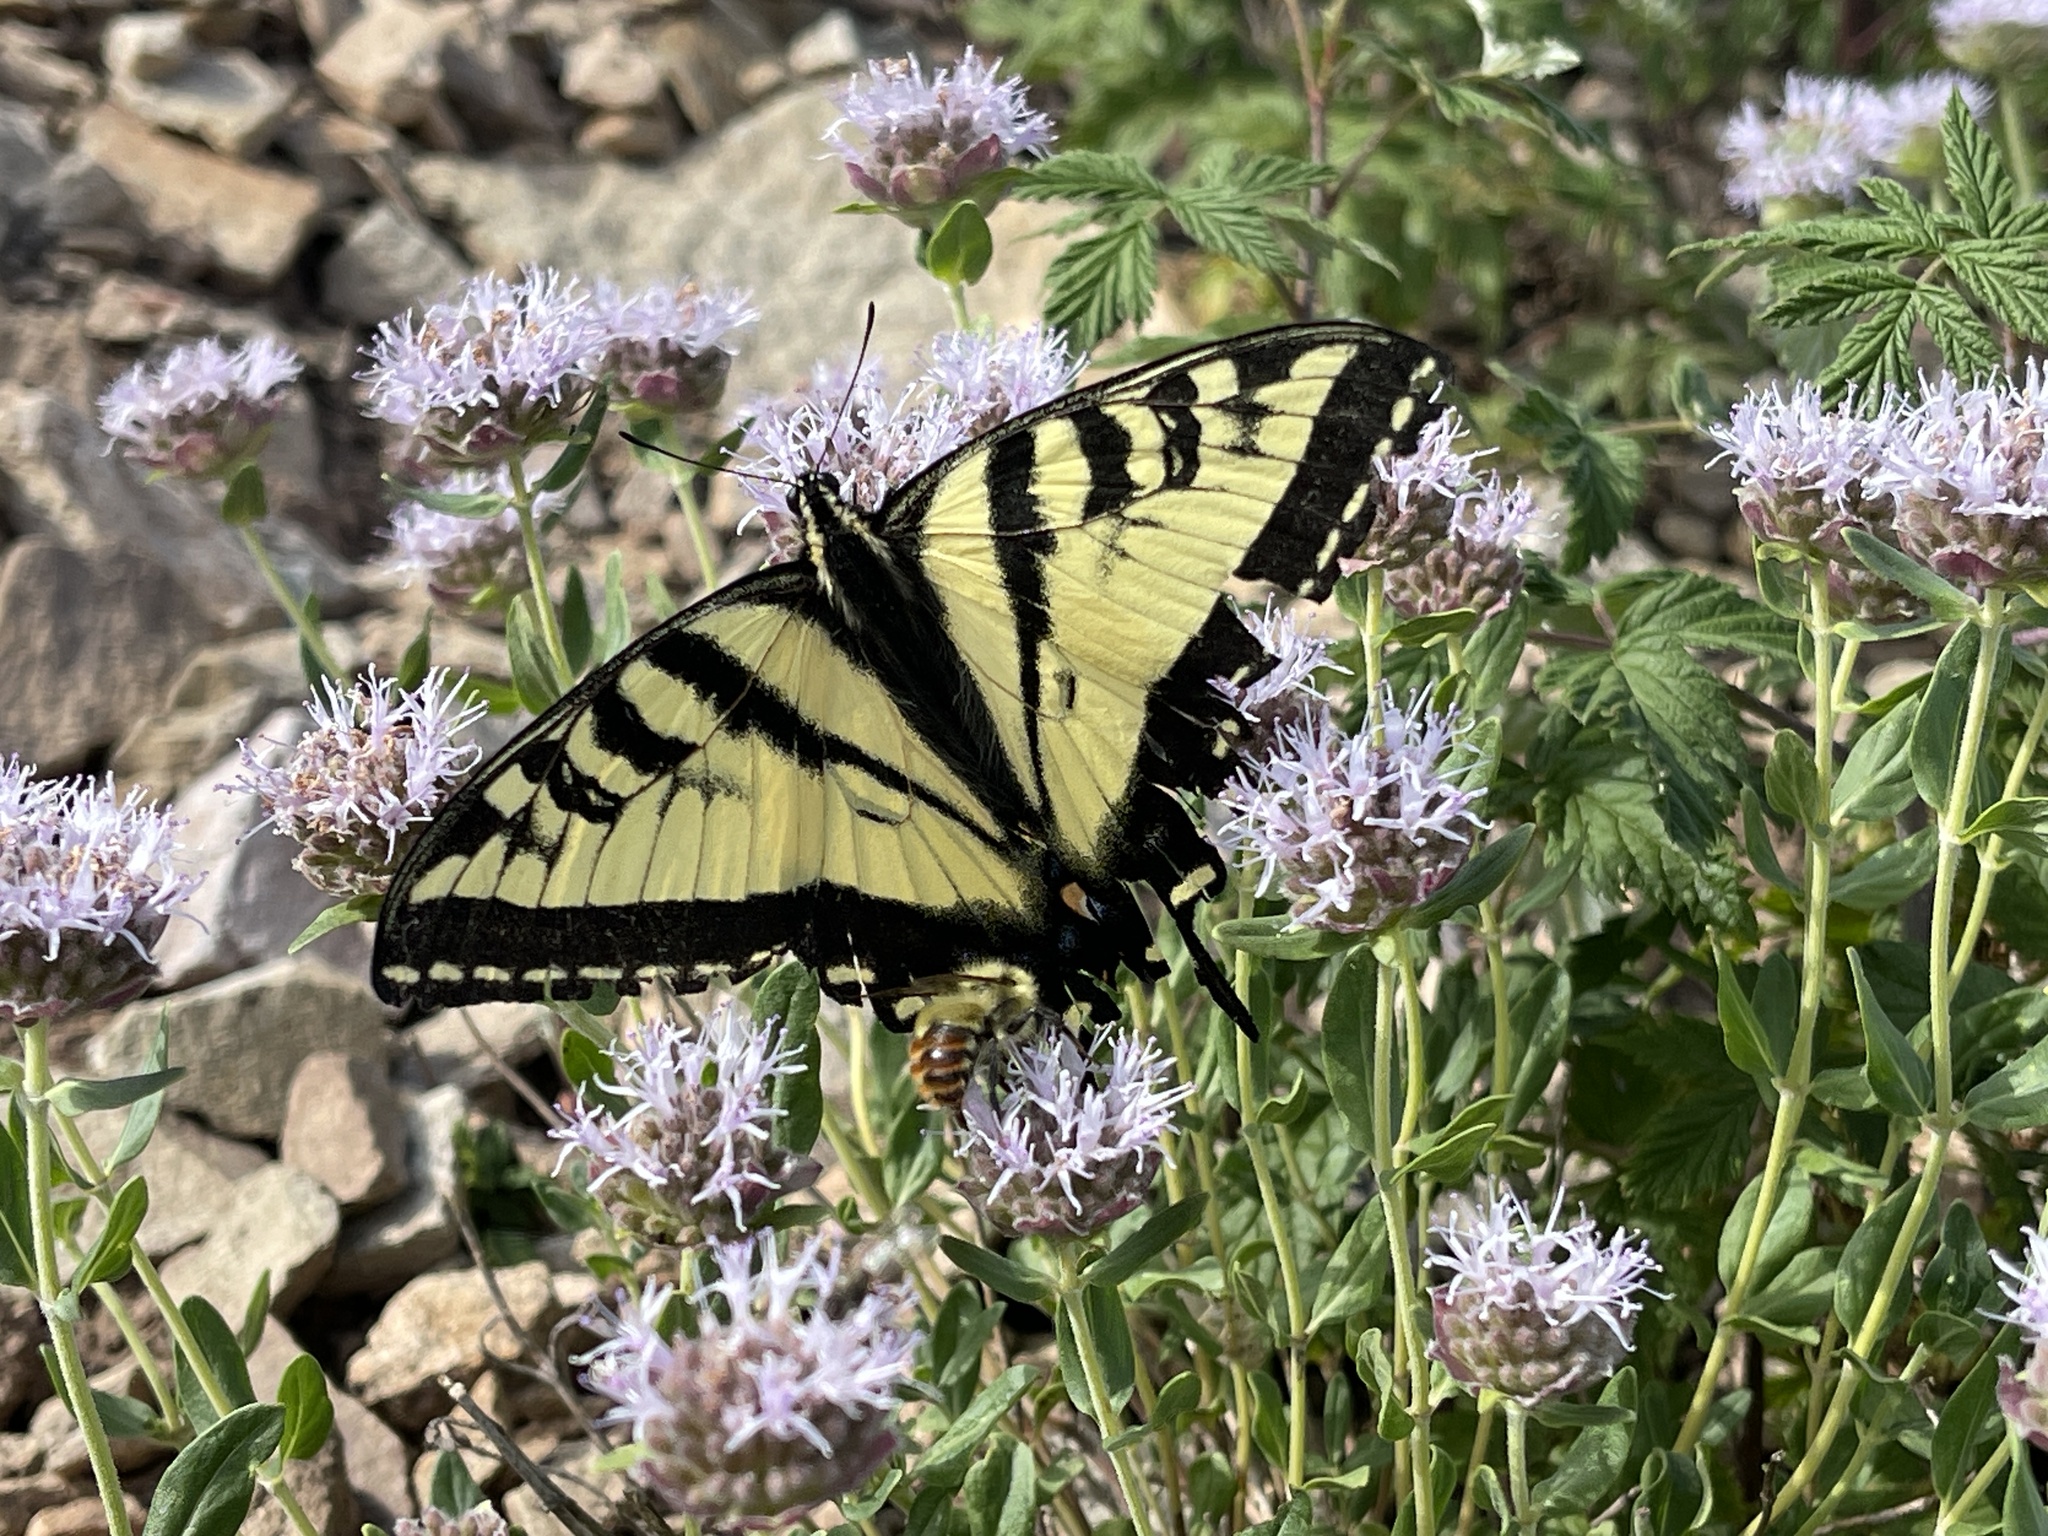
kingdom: Animalia
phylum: Arthropoda
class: Insecta
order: Lepidoptera
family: Papilionidae
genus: Papilio
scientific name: Papilio rutulus
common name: Western tiger swallowtail
